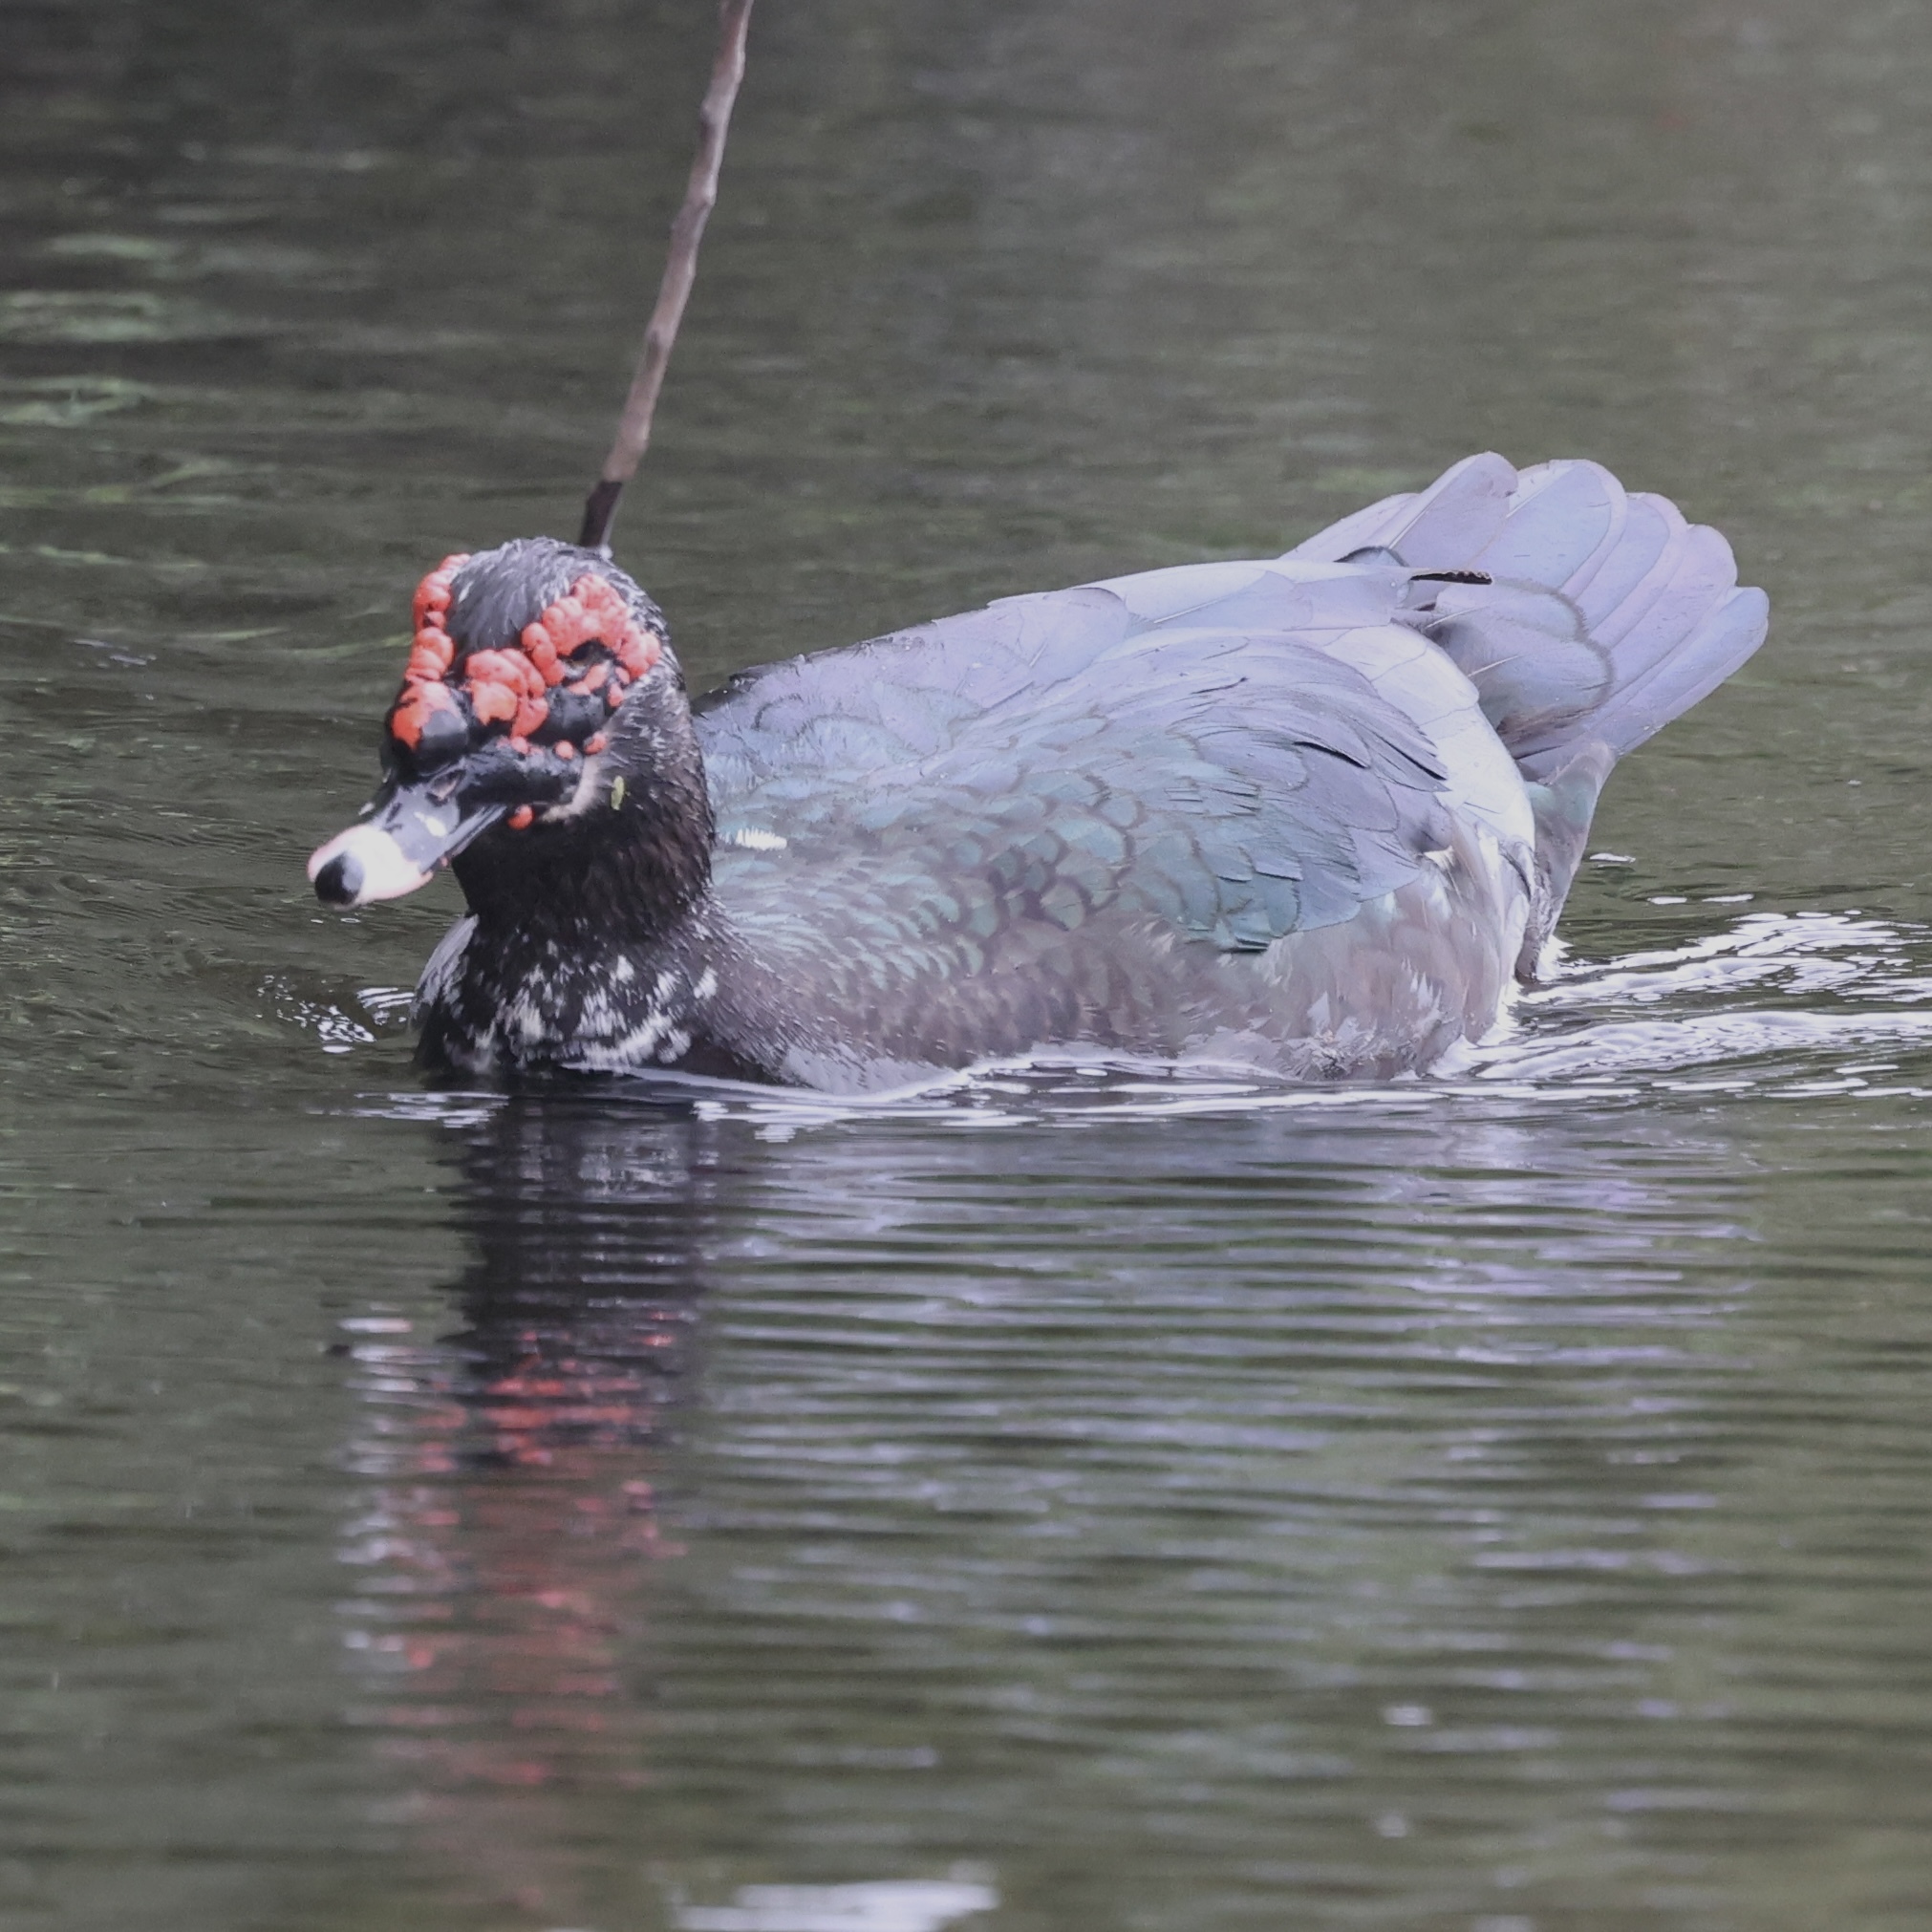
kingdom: Animalia
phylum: Chordata
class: Aves
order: Anseriformes
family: Anatidae
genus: Cairina
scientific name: Cairina moschata
